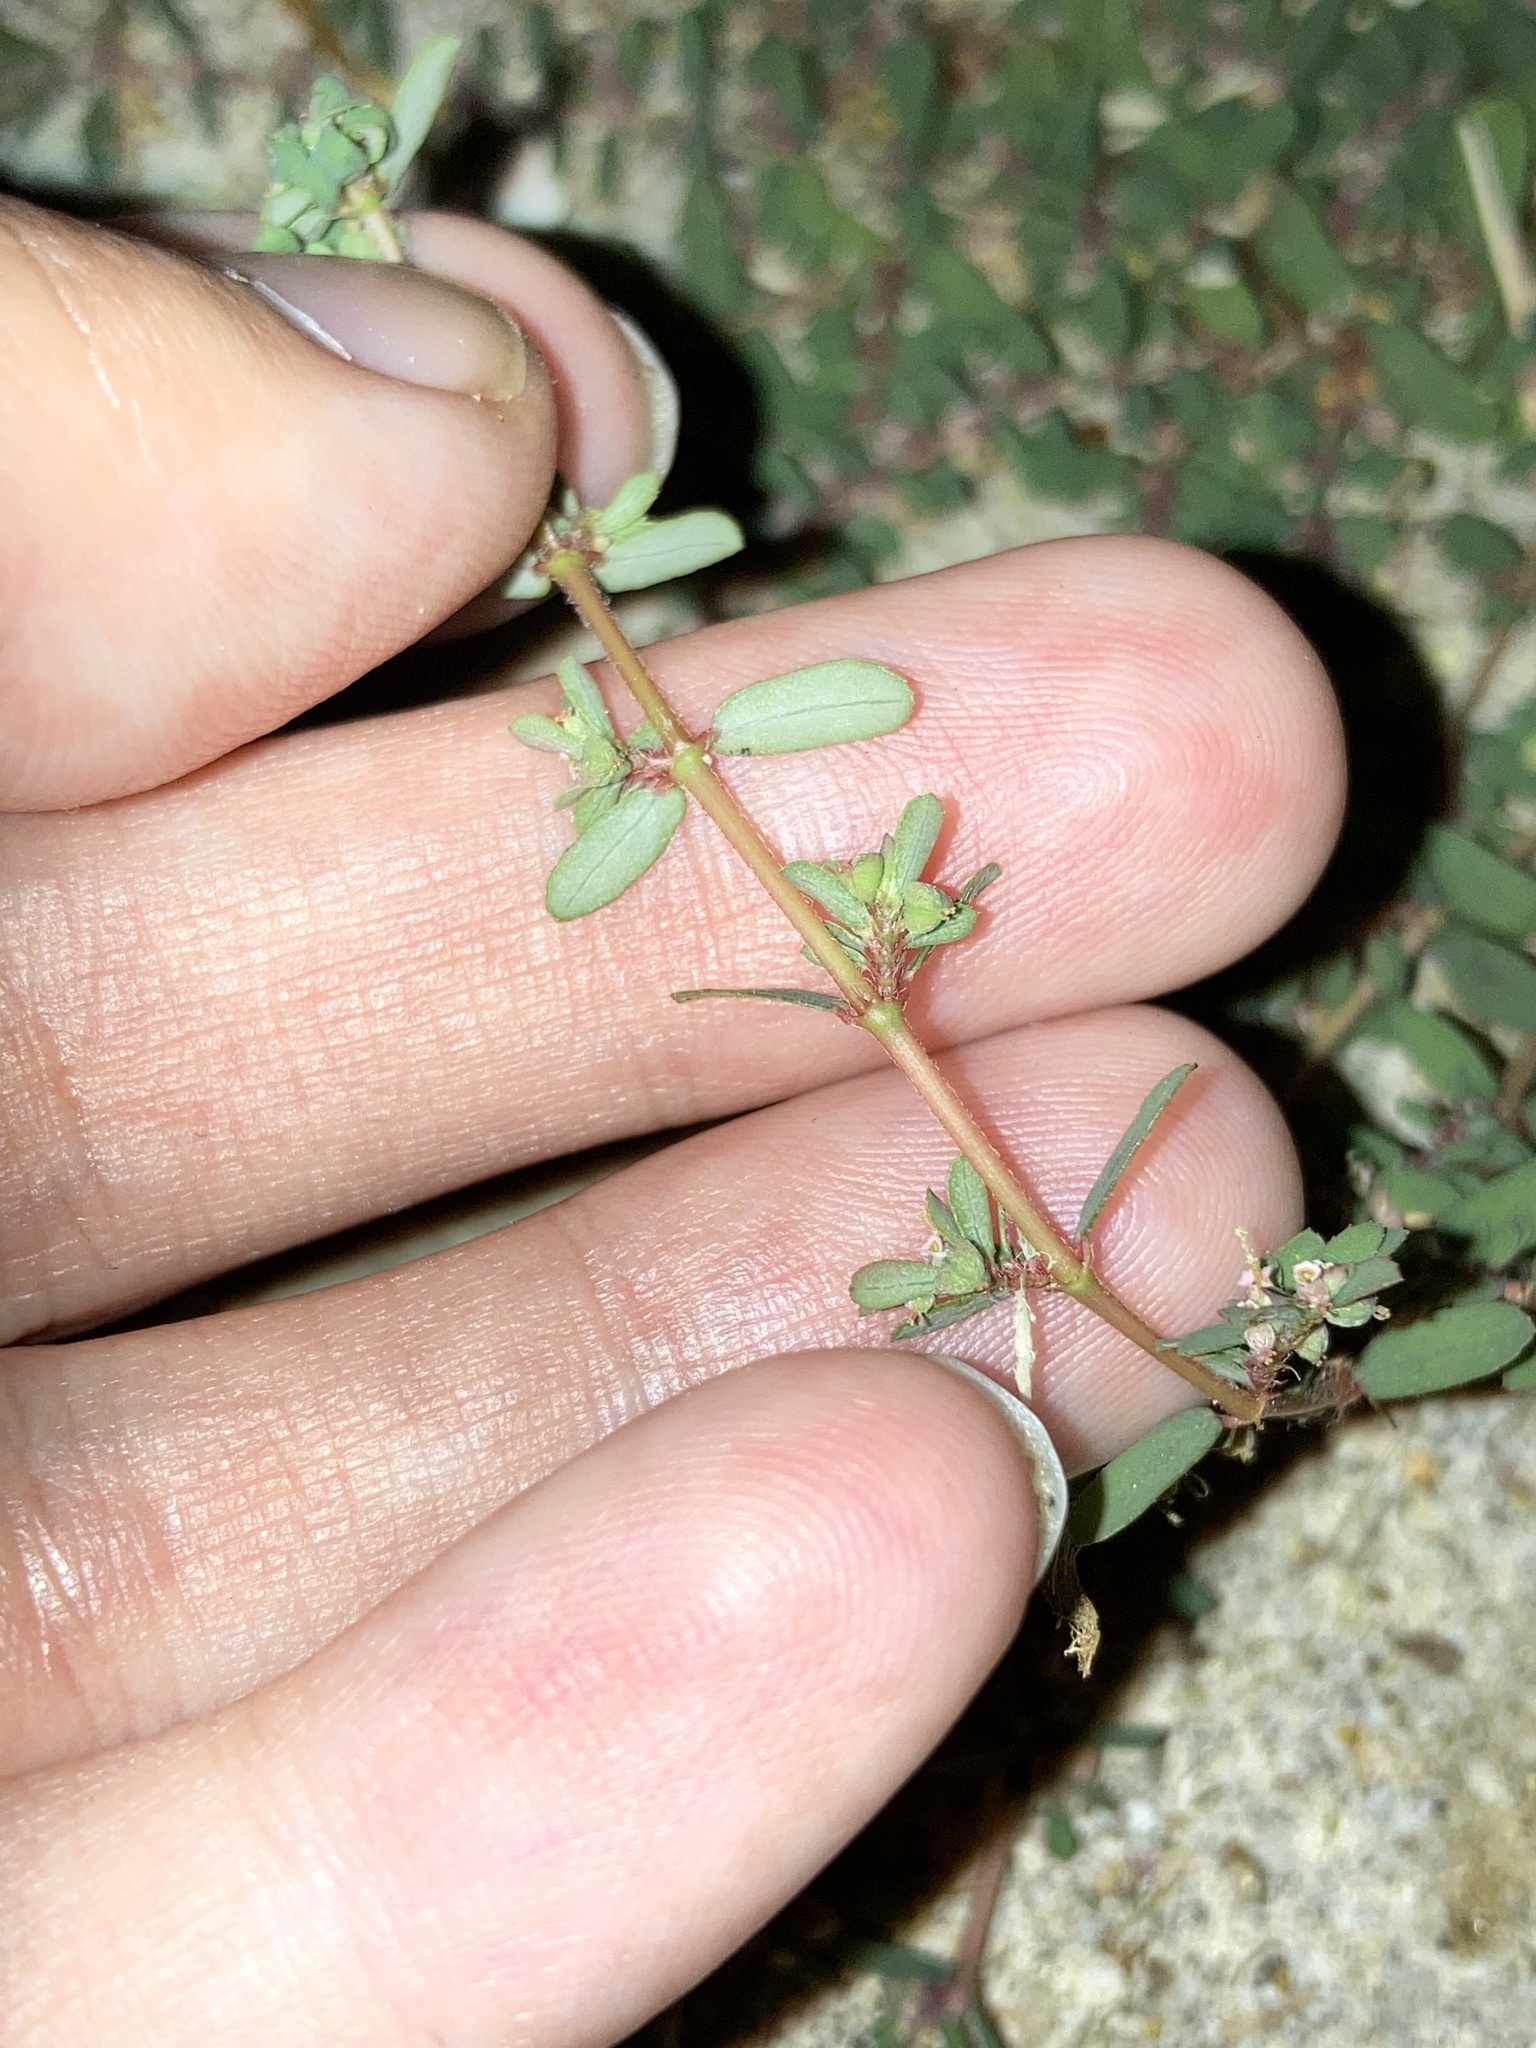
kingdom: Plantae
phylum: Tracheophyta
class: Magnoliopsida
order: Malpighiales
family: Euphorbiaceae
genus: Euphorbia
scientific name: Euphorbia maculata
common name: Spotted spurge
